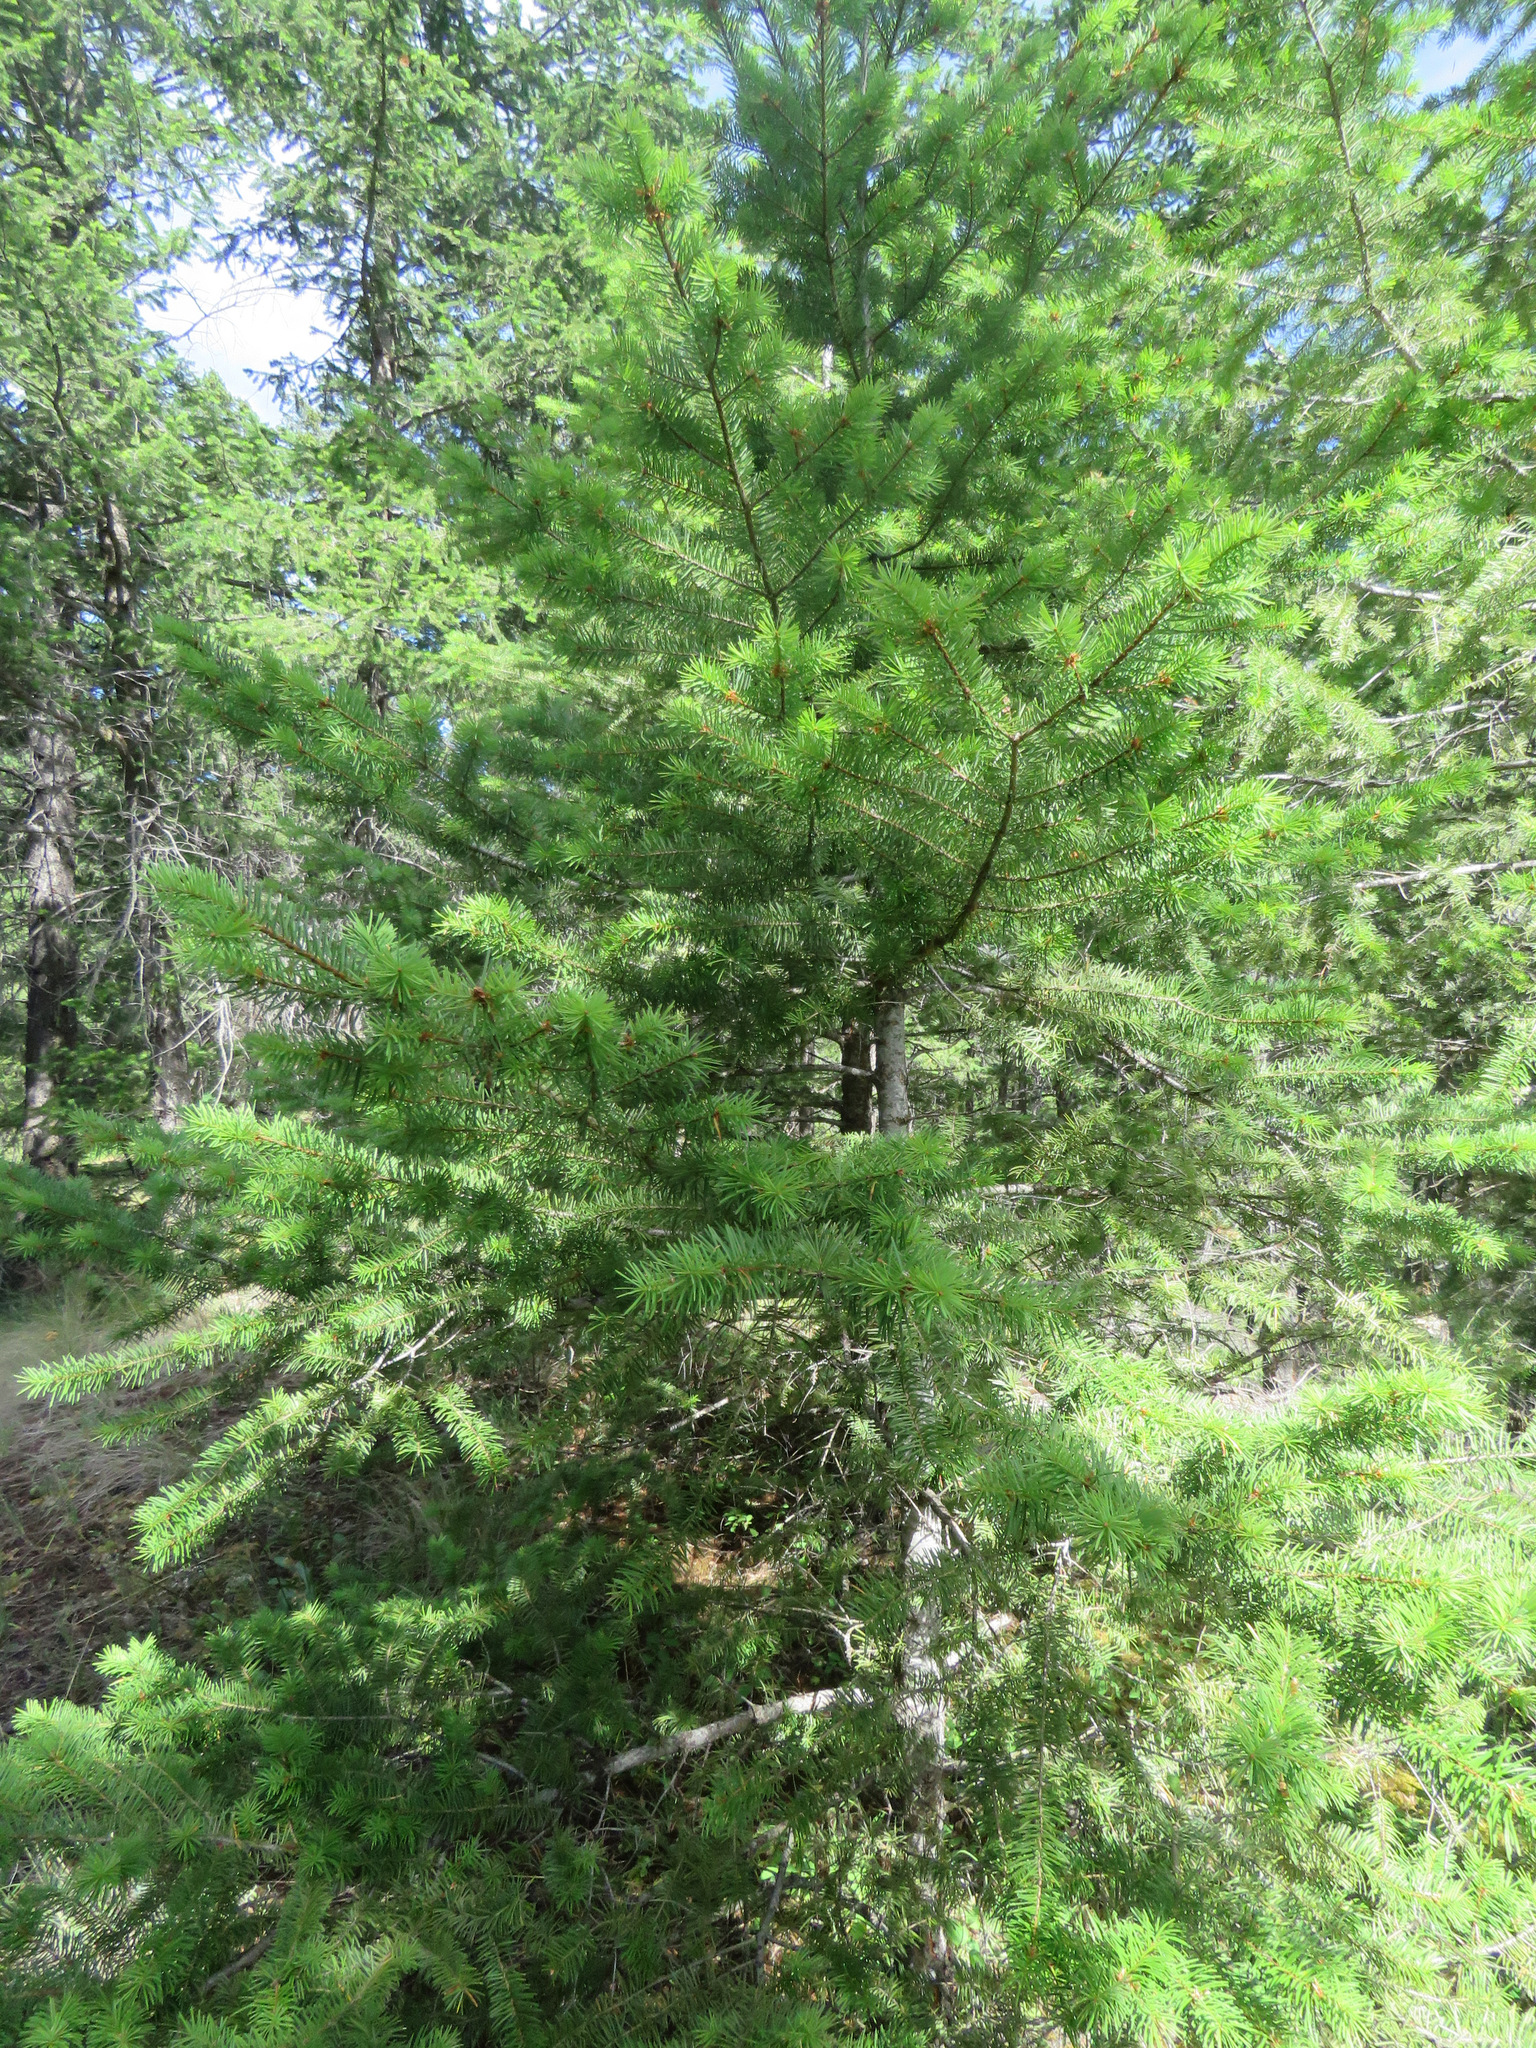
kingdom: Plantae
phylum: Tracheophyta
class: Pinopsida
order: Pinales
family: Pinaceae
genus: Pseudotsuga
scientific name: Pseudotsuga menziesii
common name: Douglas fir
